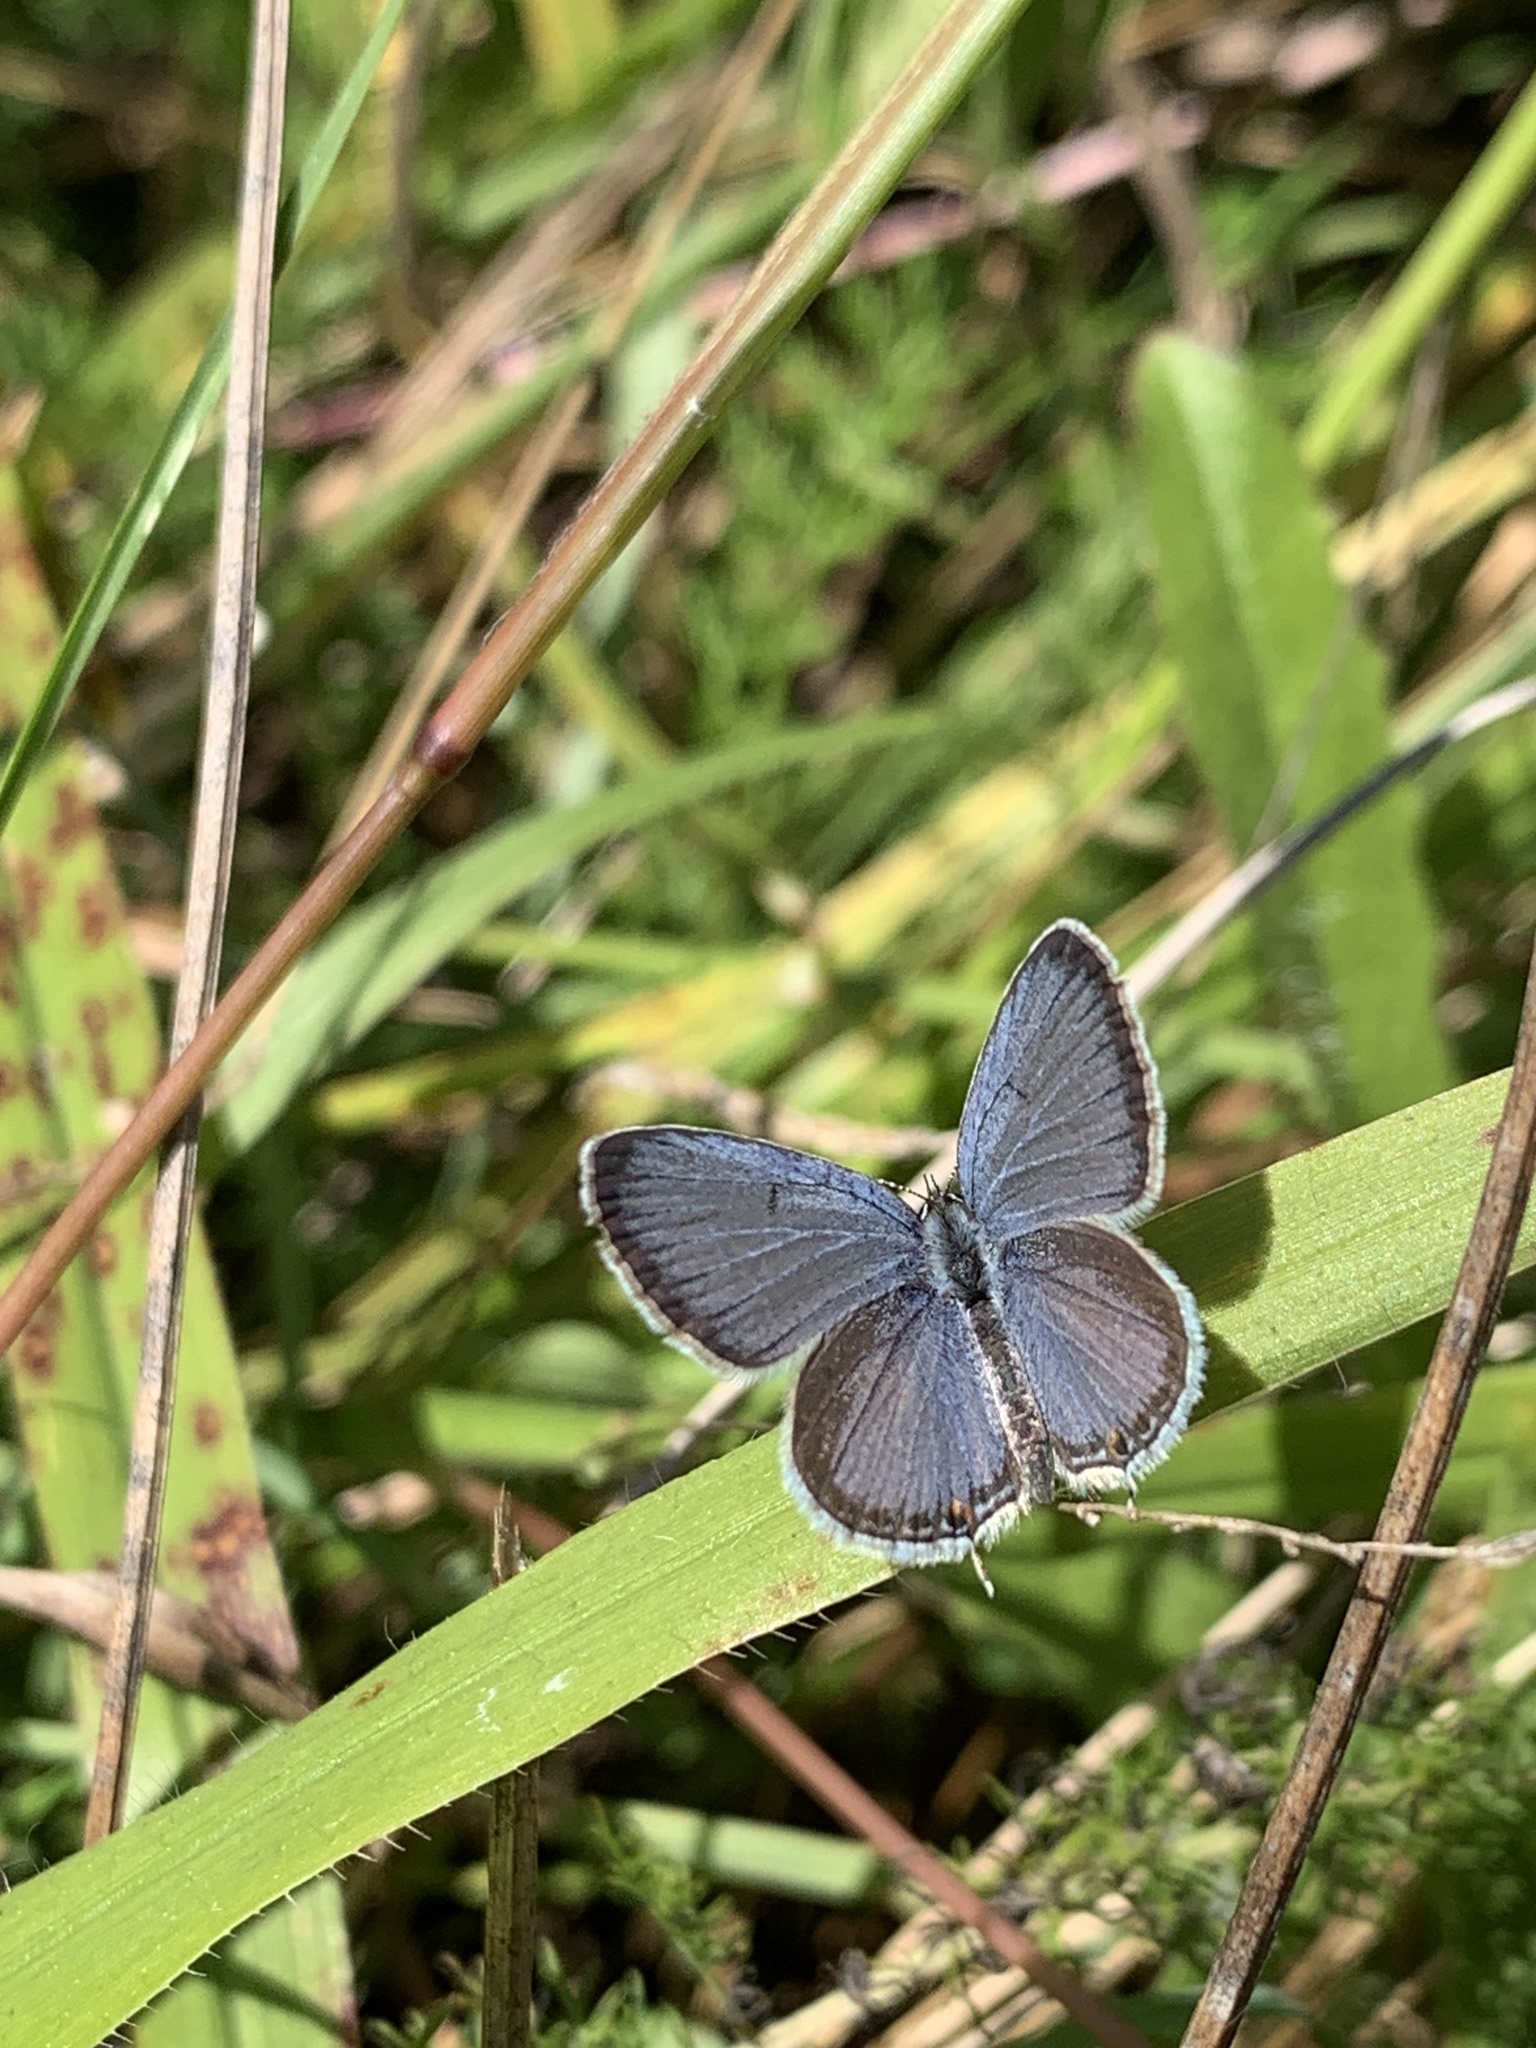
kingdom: Animalia
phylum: Arthropoda
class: Insecta
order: Lepidoptera
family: Lycaenidae
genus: Elkalyce
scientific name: Elkalyce comyntas
